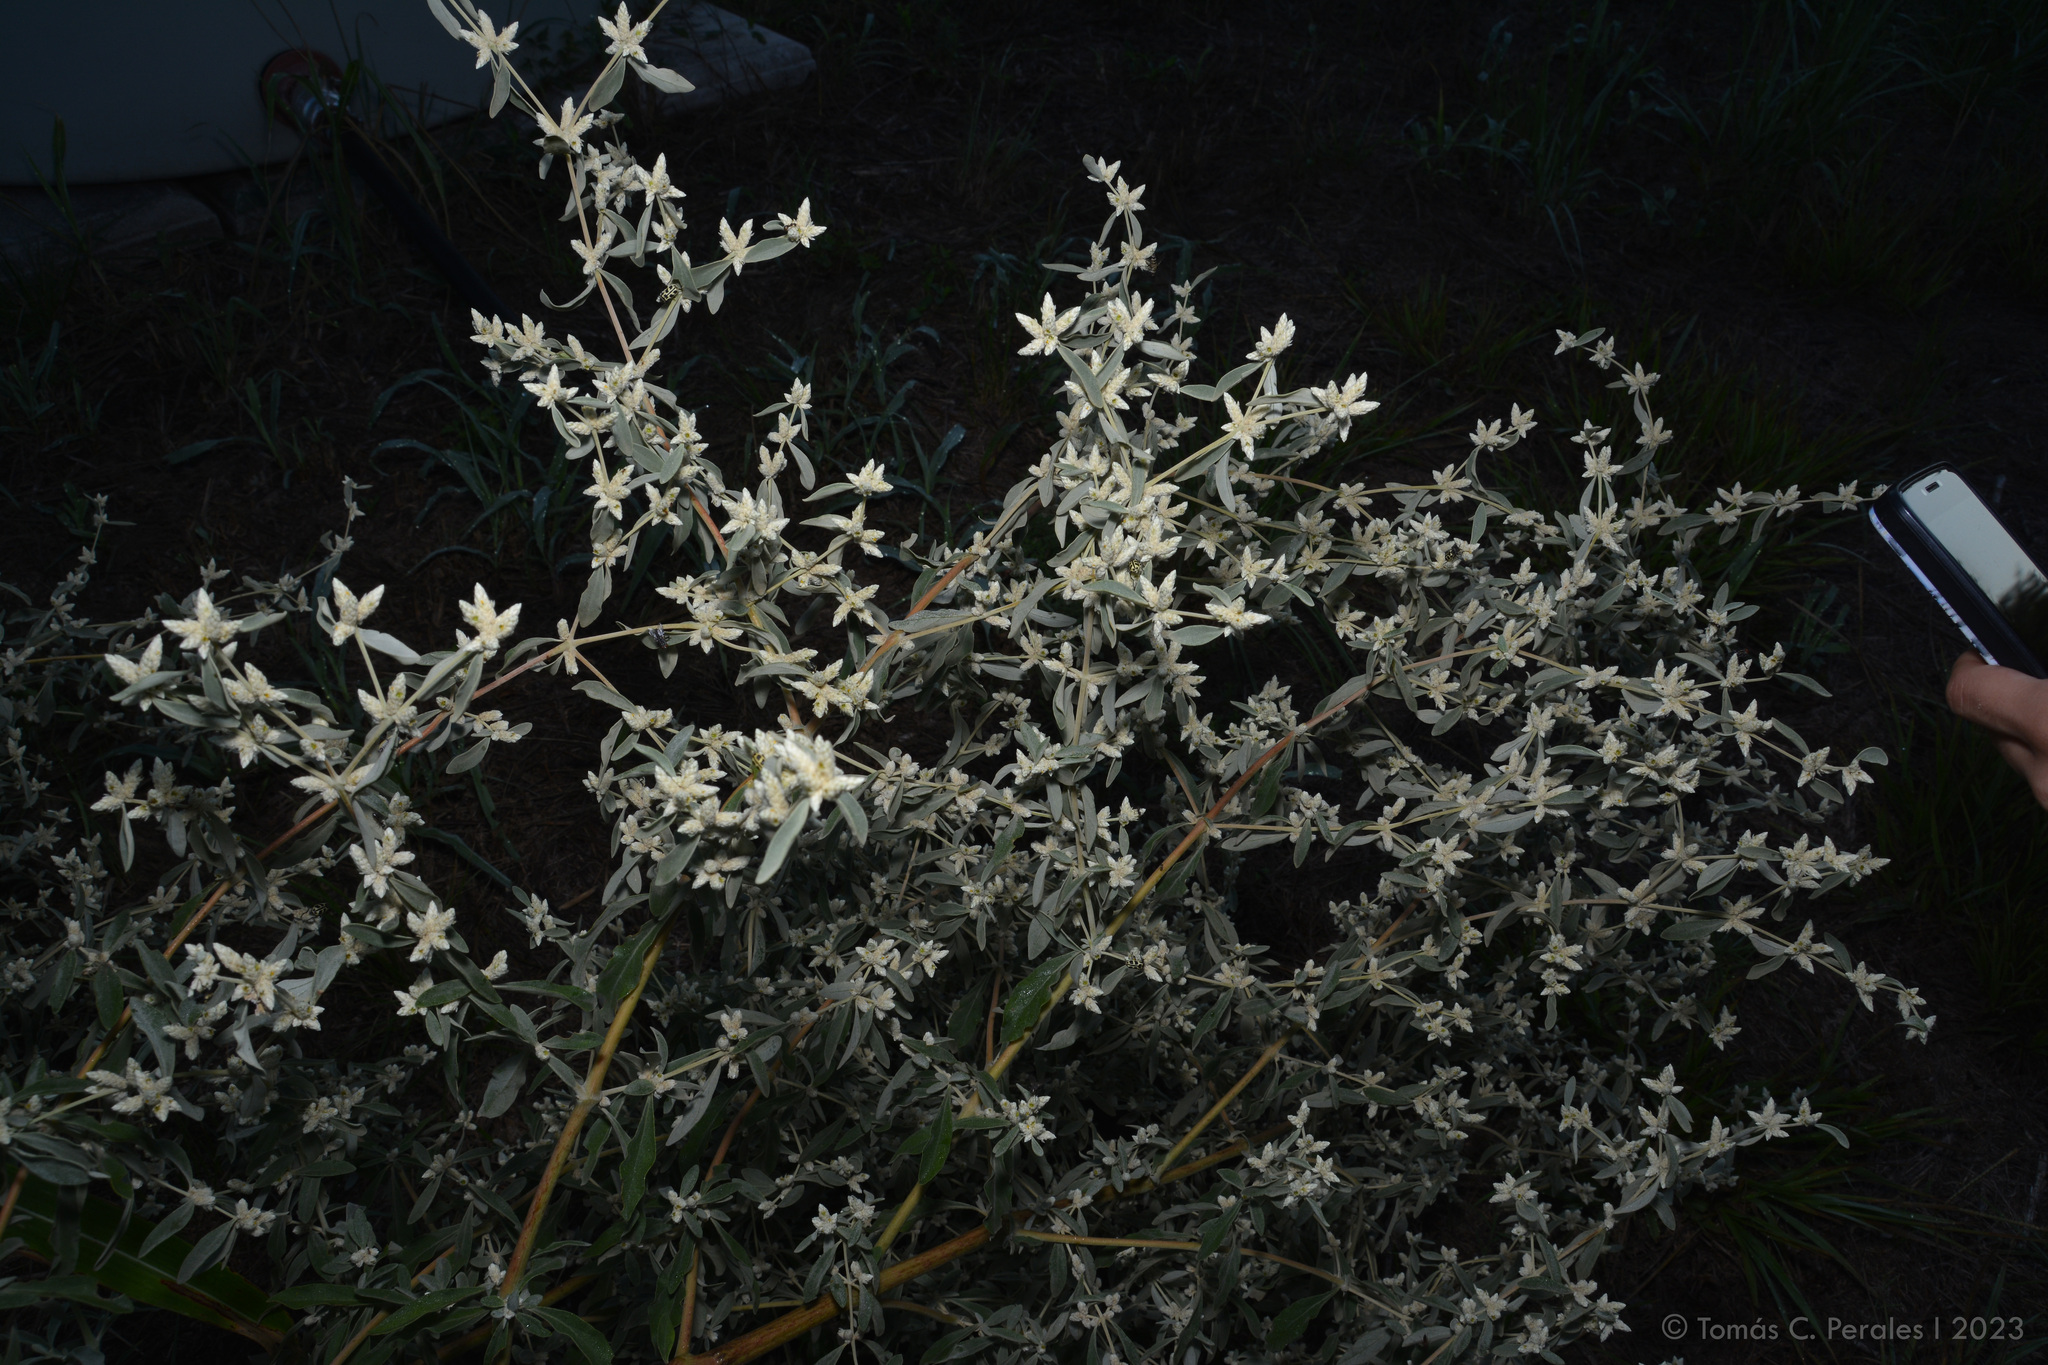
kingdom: Plantae
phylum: Tracheophyta
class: Magnoliopsida
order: Caryophyllales
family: Amaranthaceae
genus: Alternanthera
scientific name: Alternanthera albida
